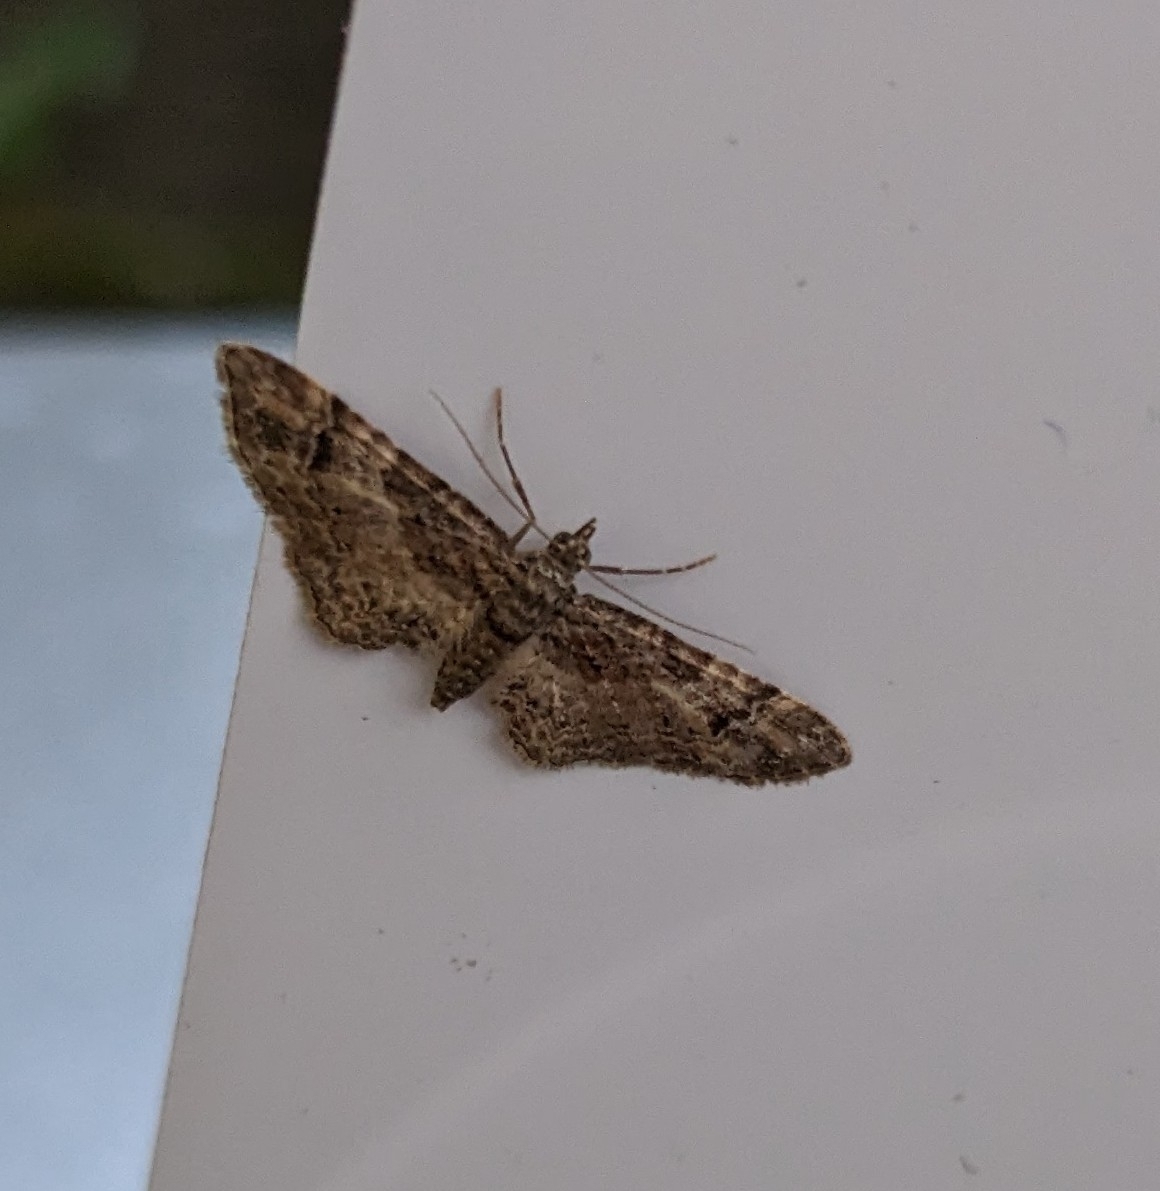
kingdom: Animalia
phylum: Arthropoda
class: Insecta
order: Lepidoptera
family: Geometridae
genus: Gymnoscelis
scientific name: Gymnoscelis rufifasciata
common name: Double-striped pug
